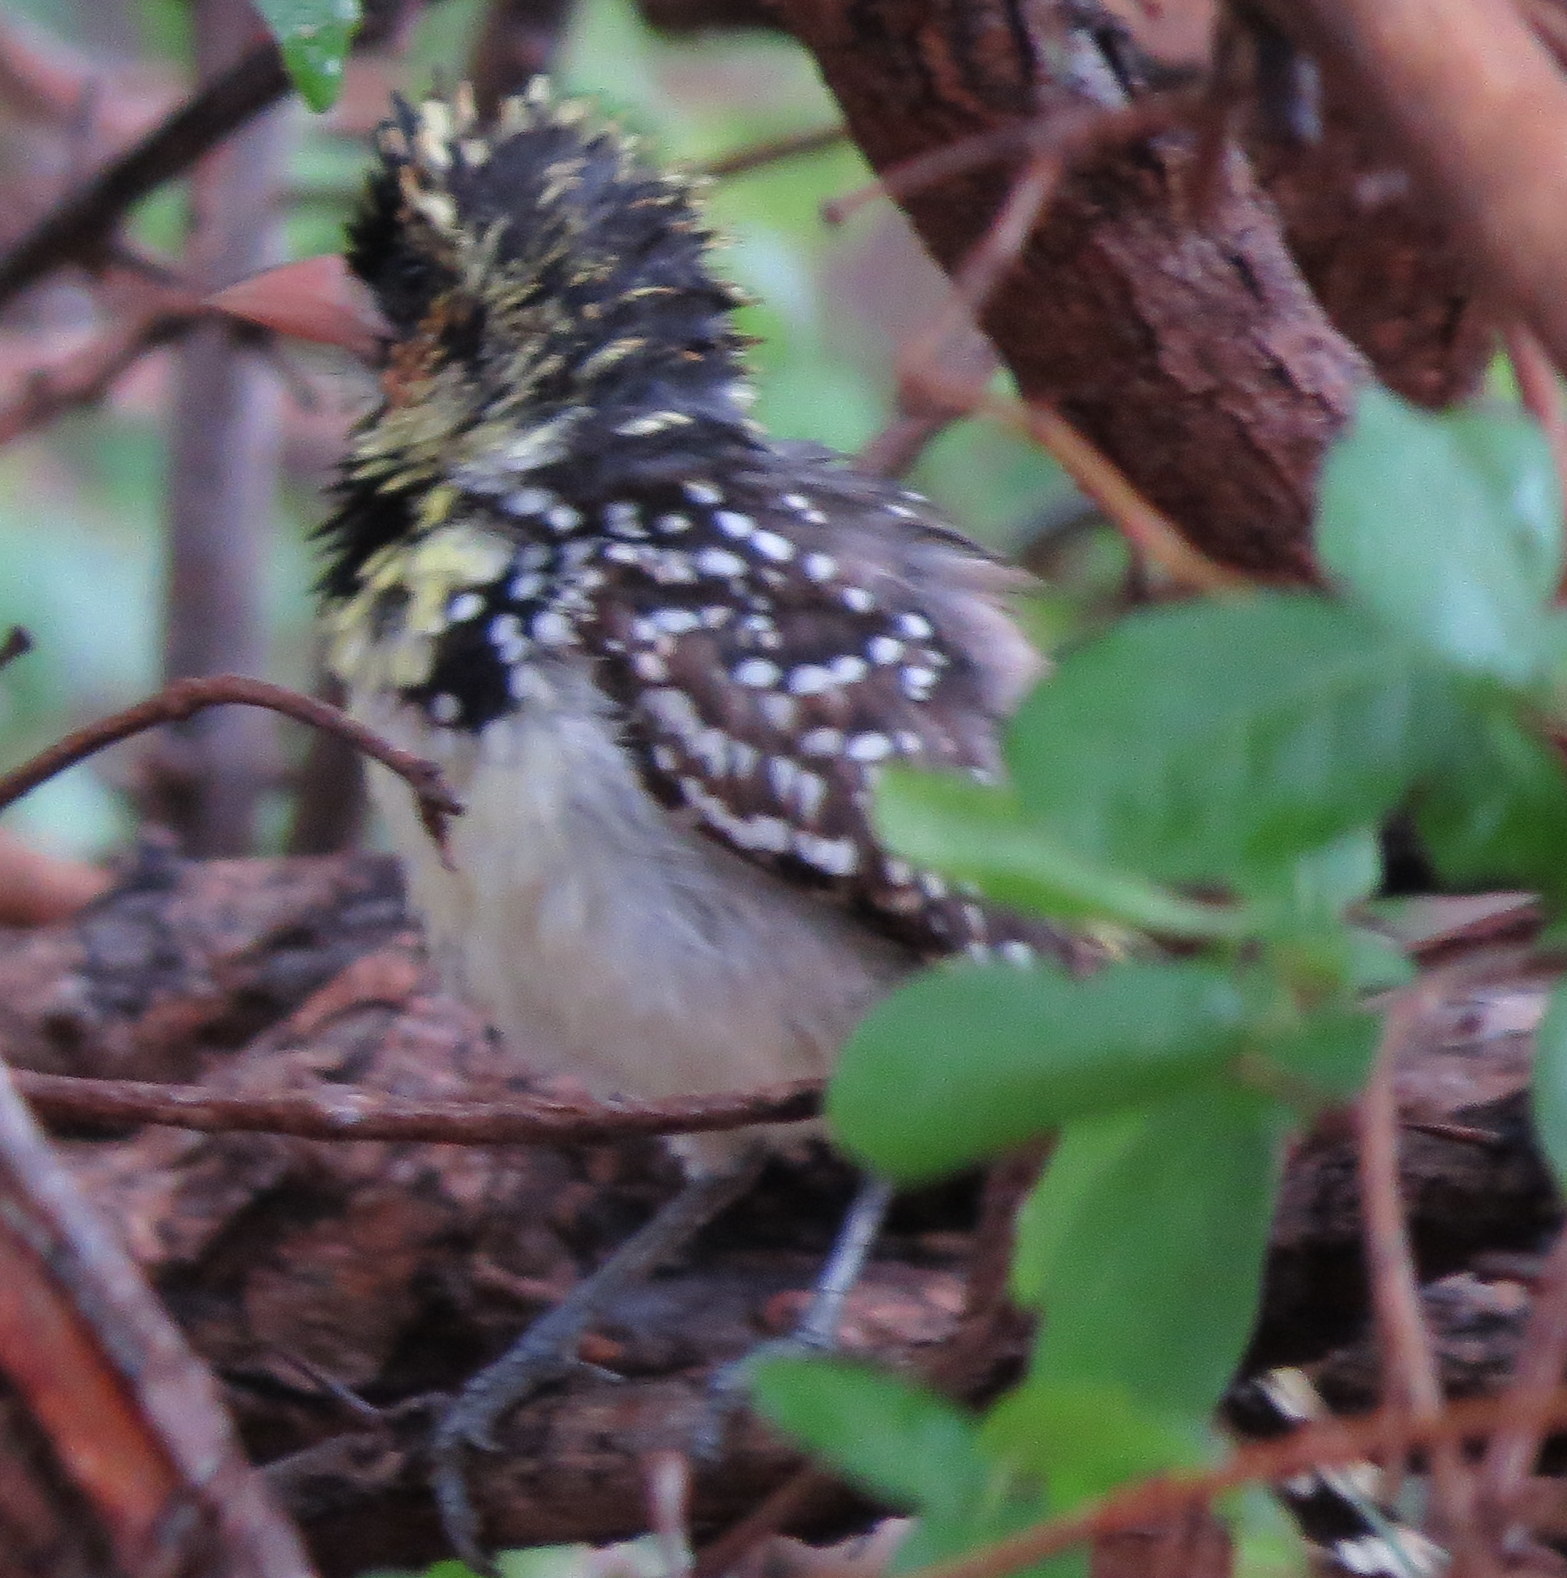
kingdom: Animalia
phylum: Chordata
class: Aves
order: Piciformes
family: Lybiidae
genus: Trachyphonus
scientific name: Trachyphonus darnaudii
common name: D'arnaud's barbet
